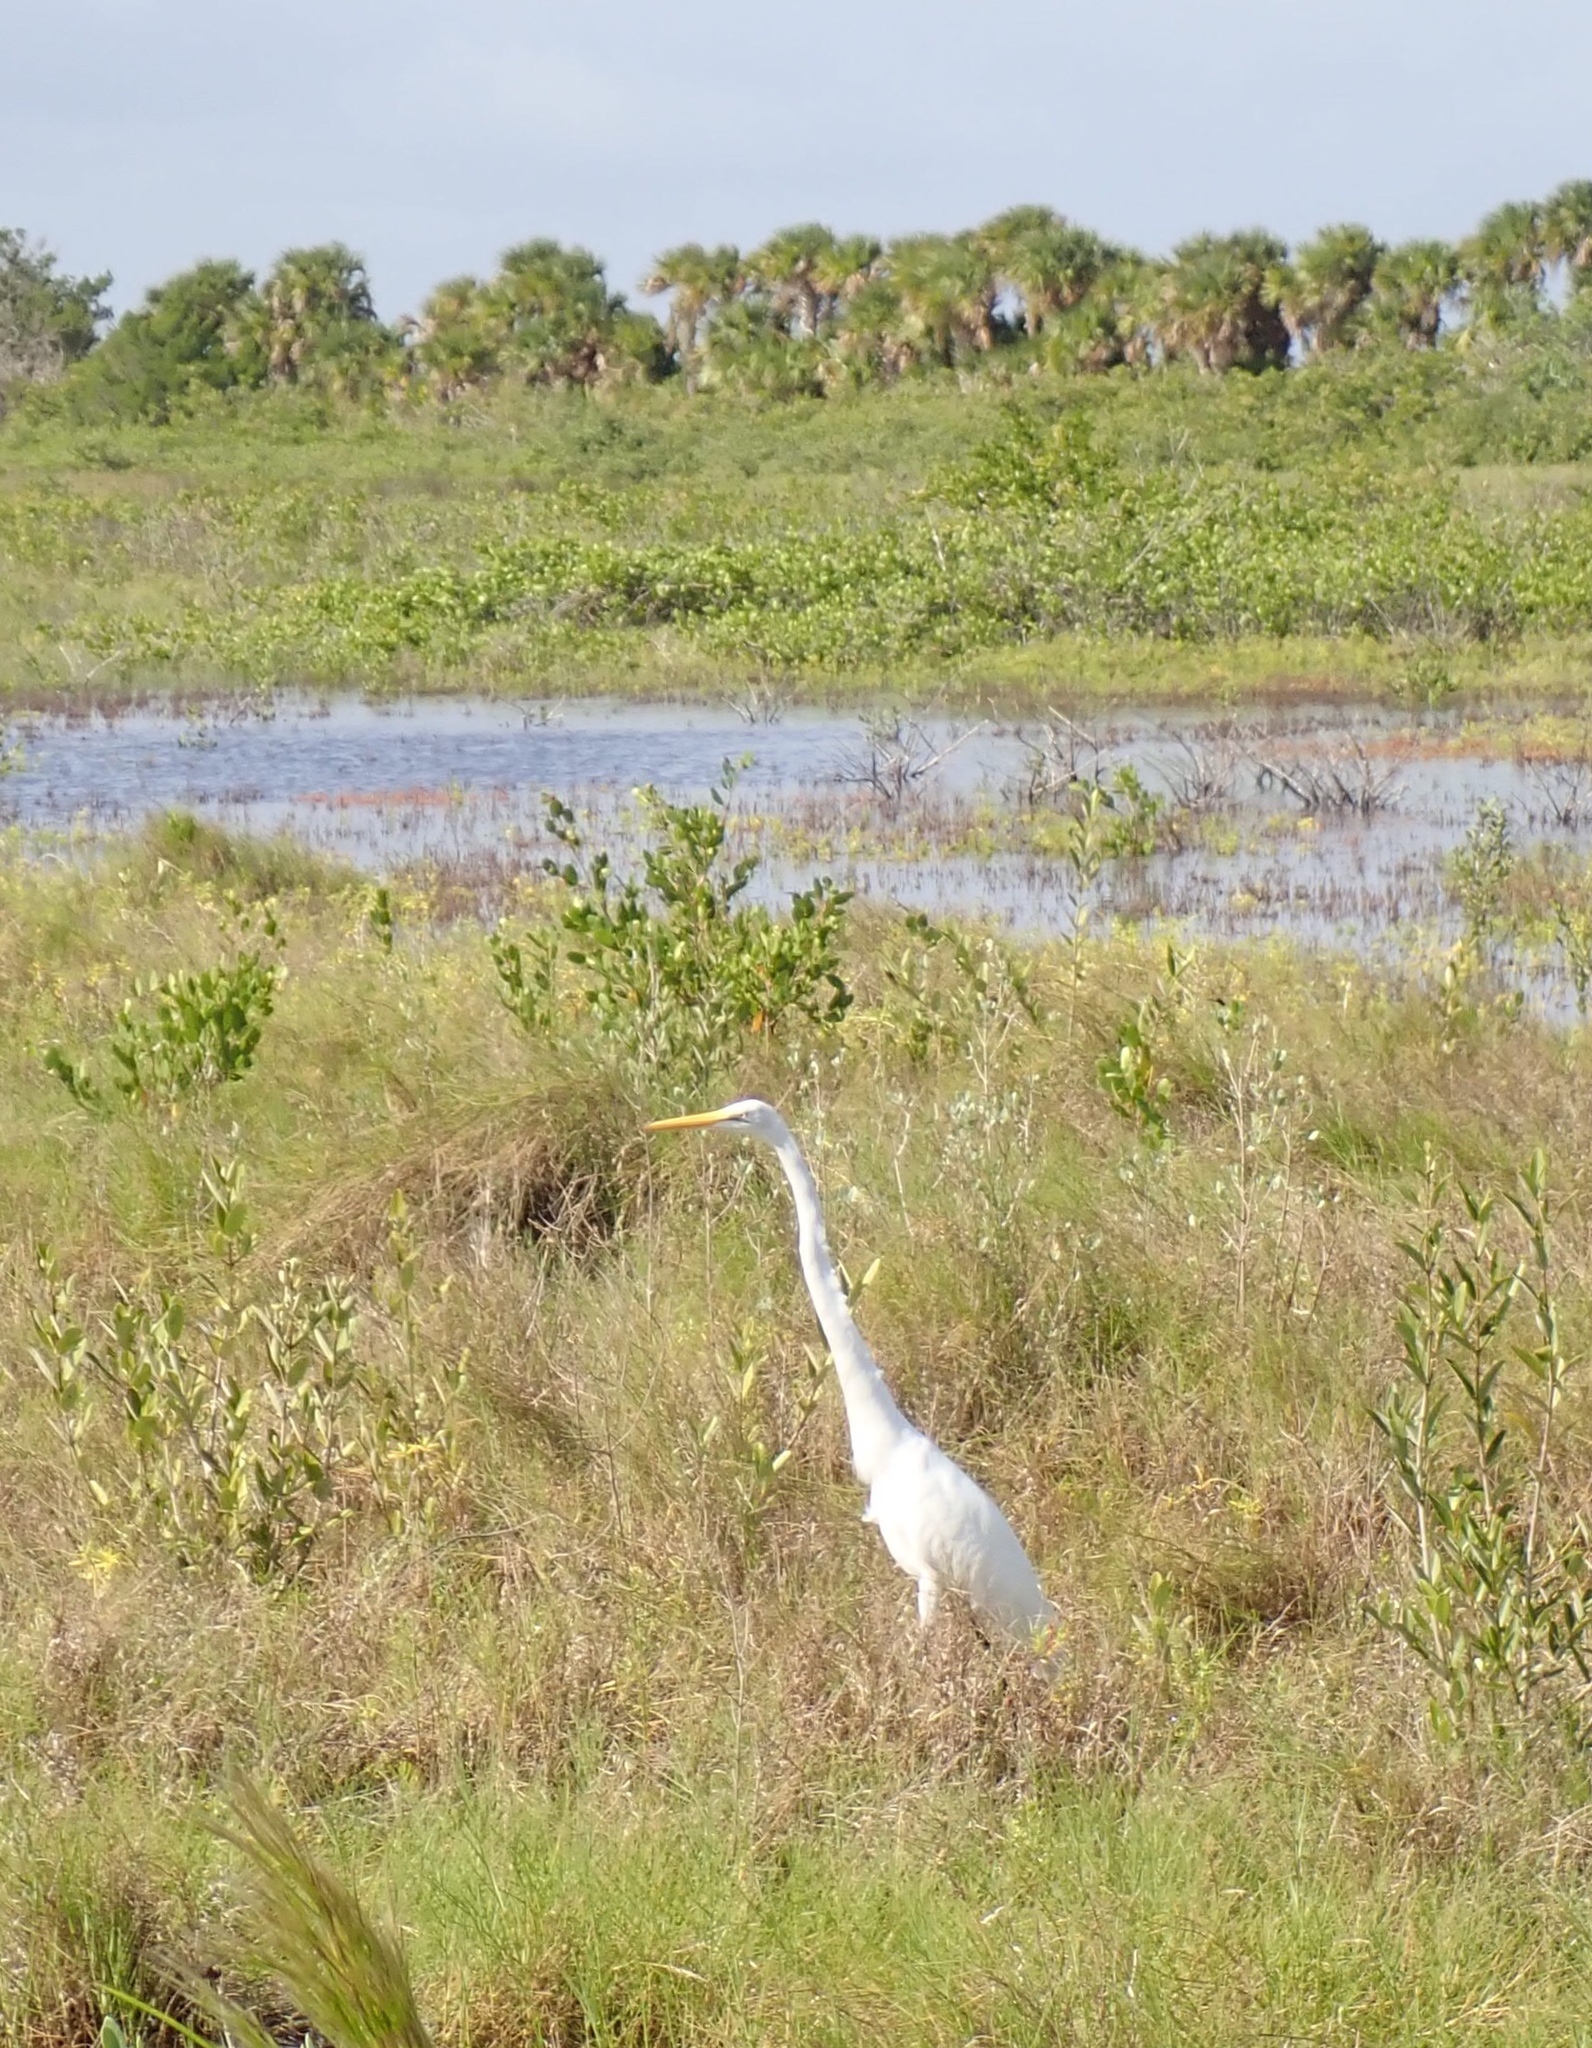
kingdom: Animalia
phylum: Chordata
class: Aves
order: Pelecaniformes
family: Ardeidae
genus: Ardea
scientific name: Ardea alba
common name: Great egret
